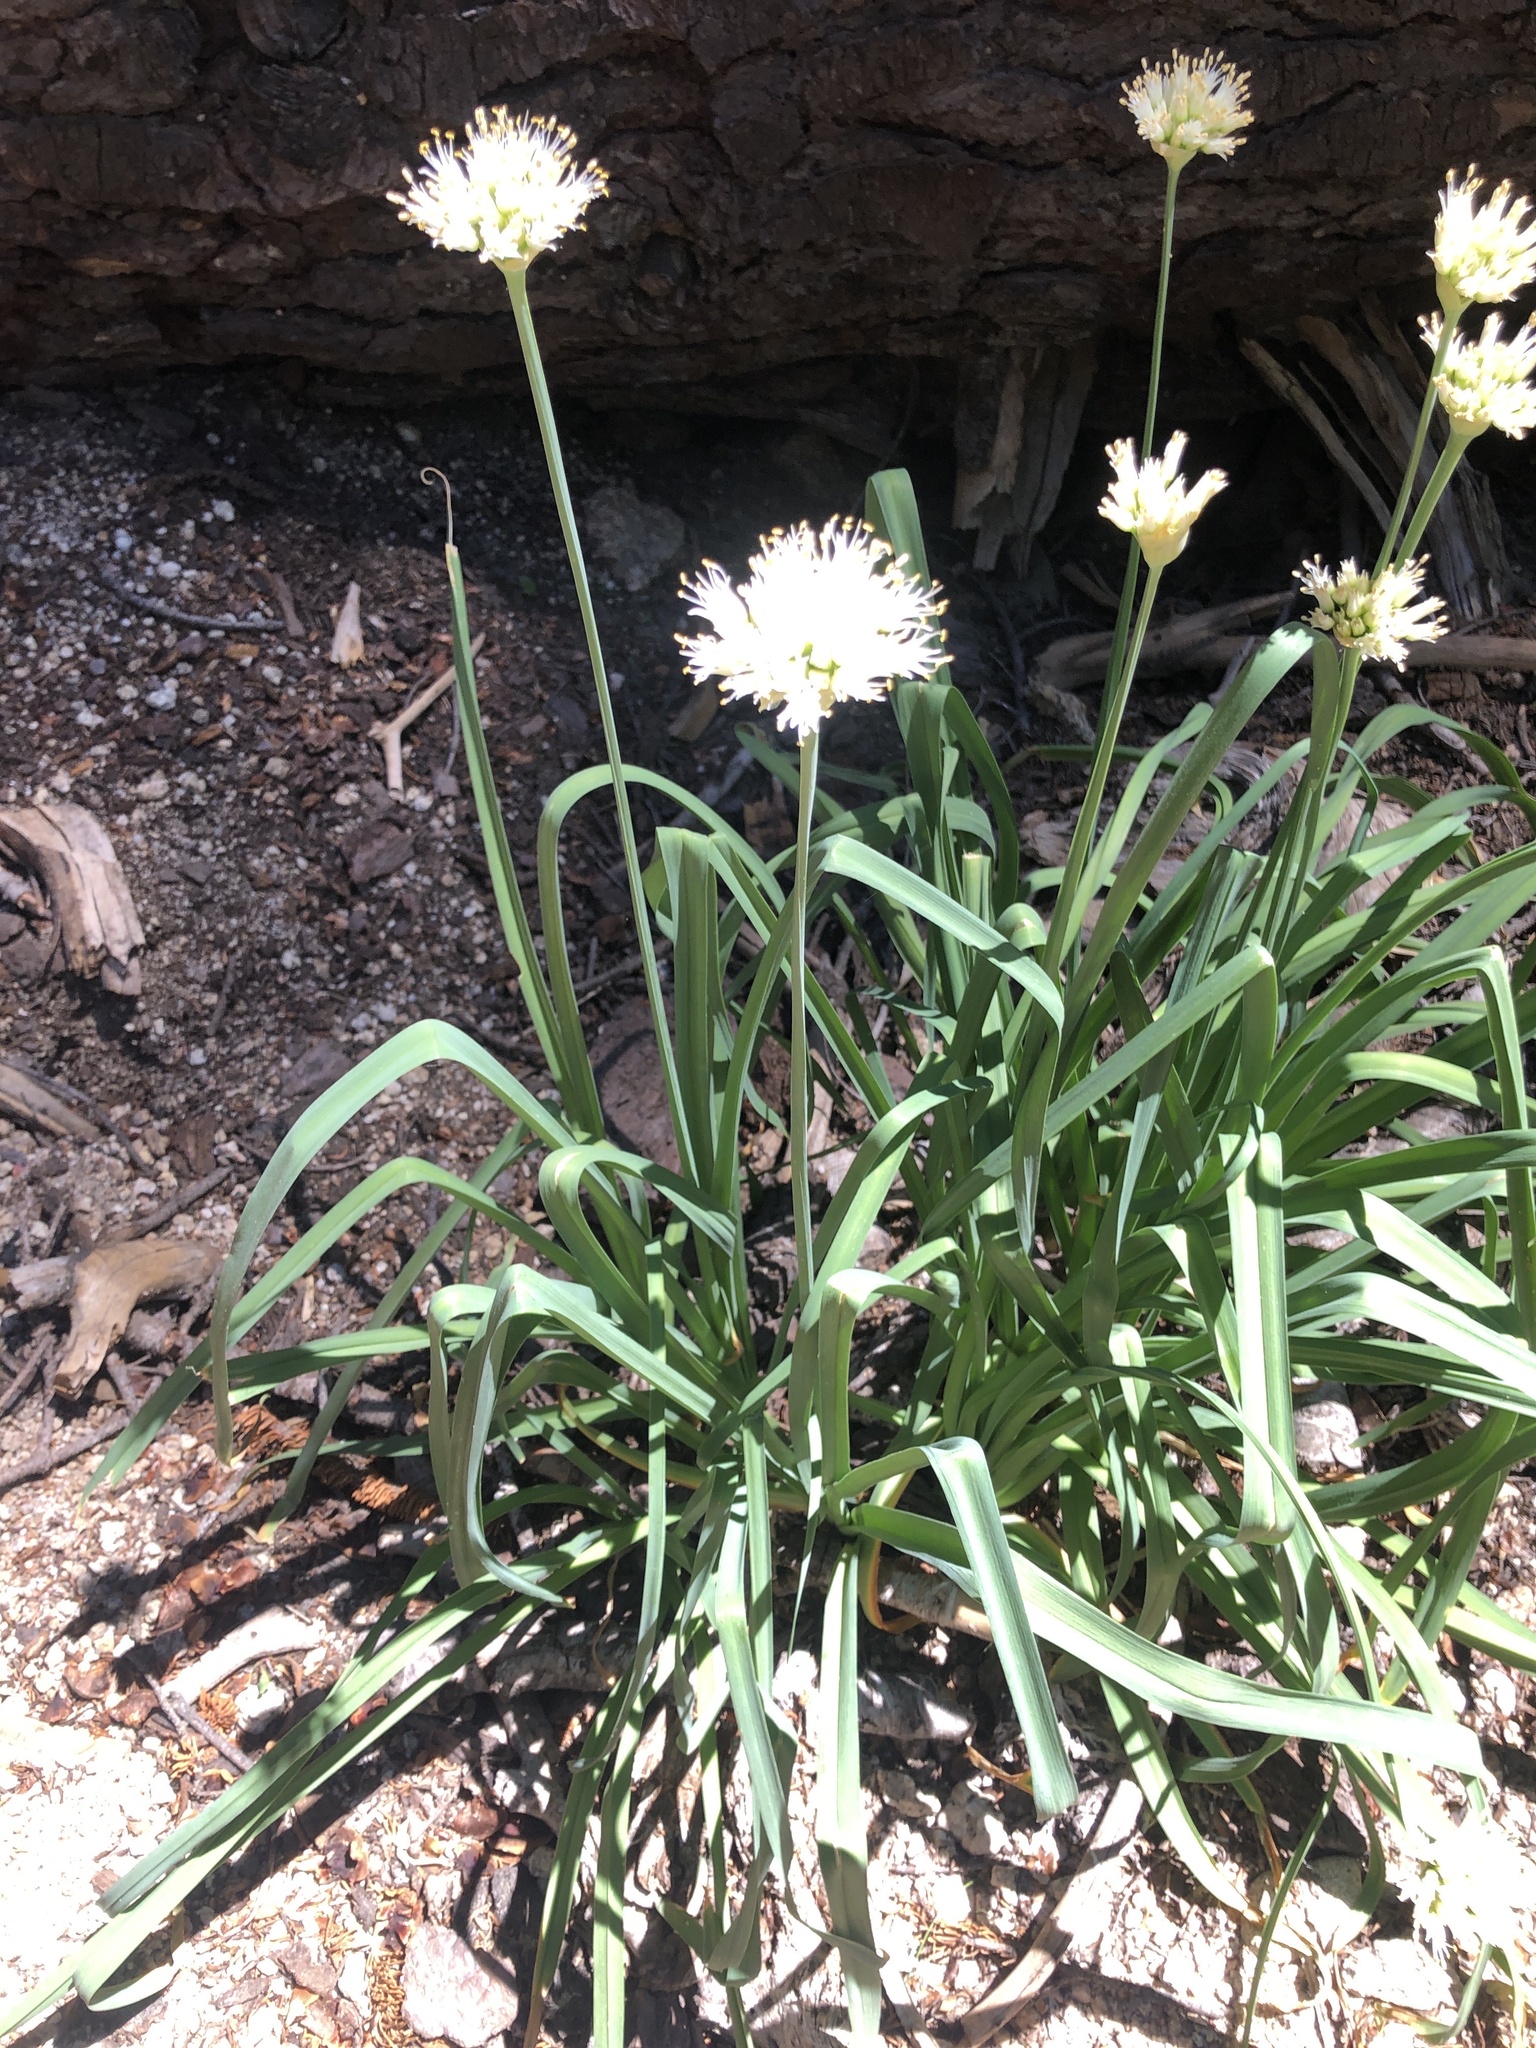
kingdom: Plantae
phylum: Tracheophyta
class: Liliopsida
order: Asparagales
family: Amaryllidaceae
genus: Allium
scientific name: Allium validum
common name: Pacific mountain onion
